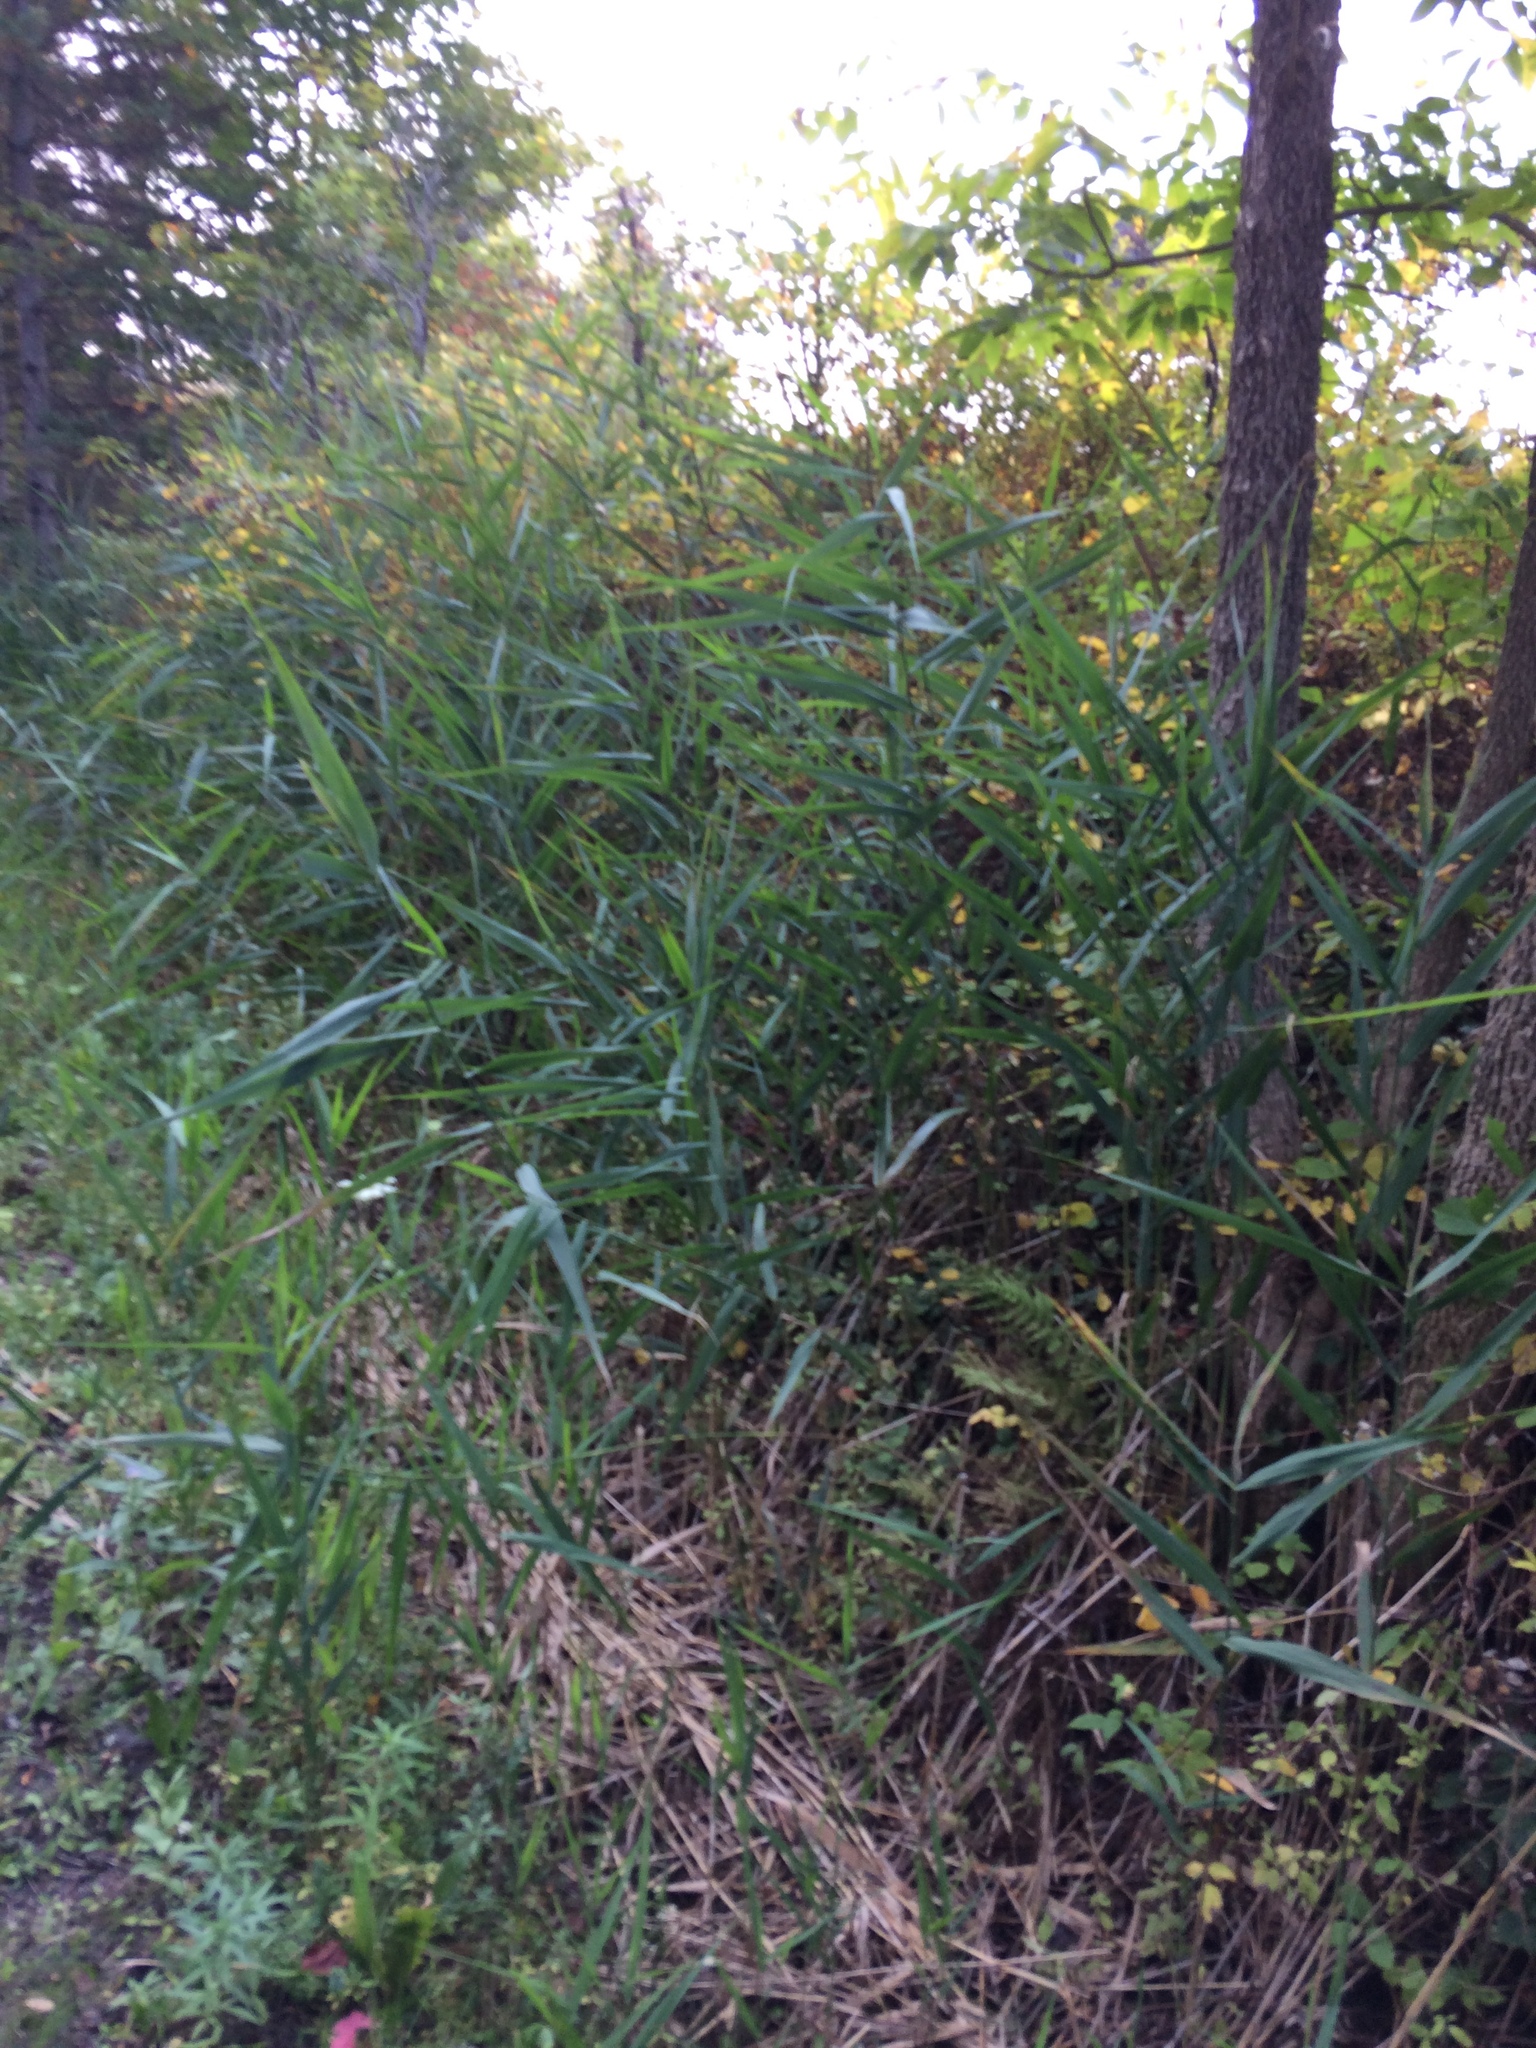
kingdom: Plantae
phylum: Tracheophyta
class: Liliopsida
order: Poales
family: Poaceae
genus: Phragmites
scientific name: Phragmites australis
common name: Common reed
